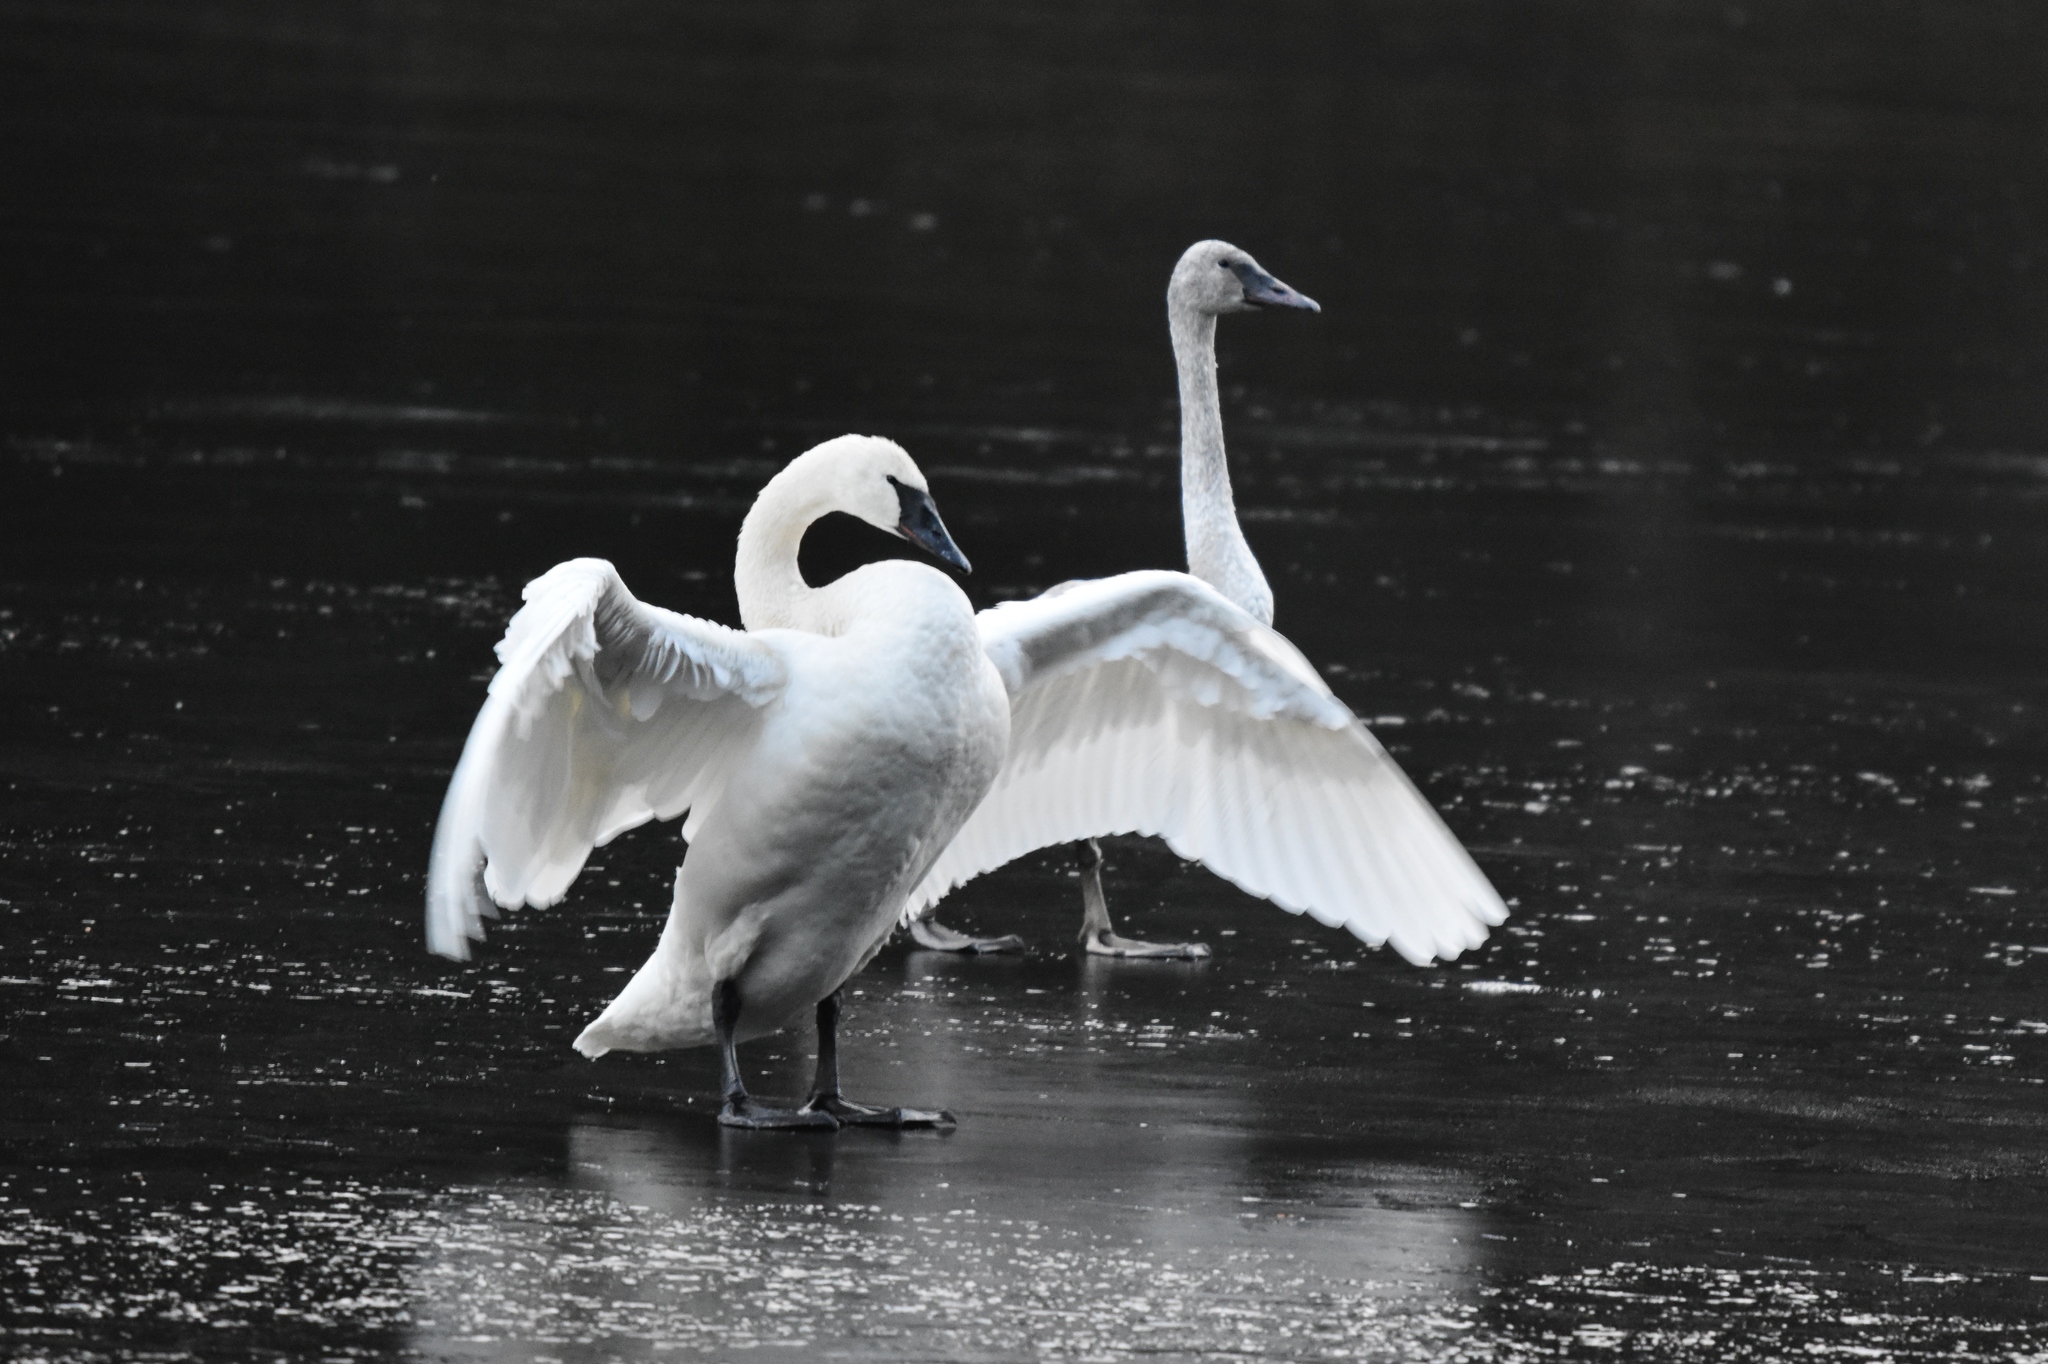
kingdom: Animalia
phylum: Chordata
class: Aves
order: Anseriformes
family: Anatidae
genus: Cygnus
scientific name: Cygnus buccinator
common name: Trumpeter swan
